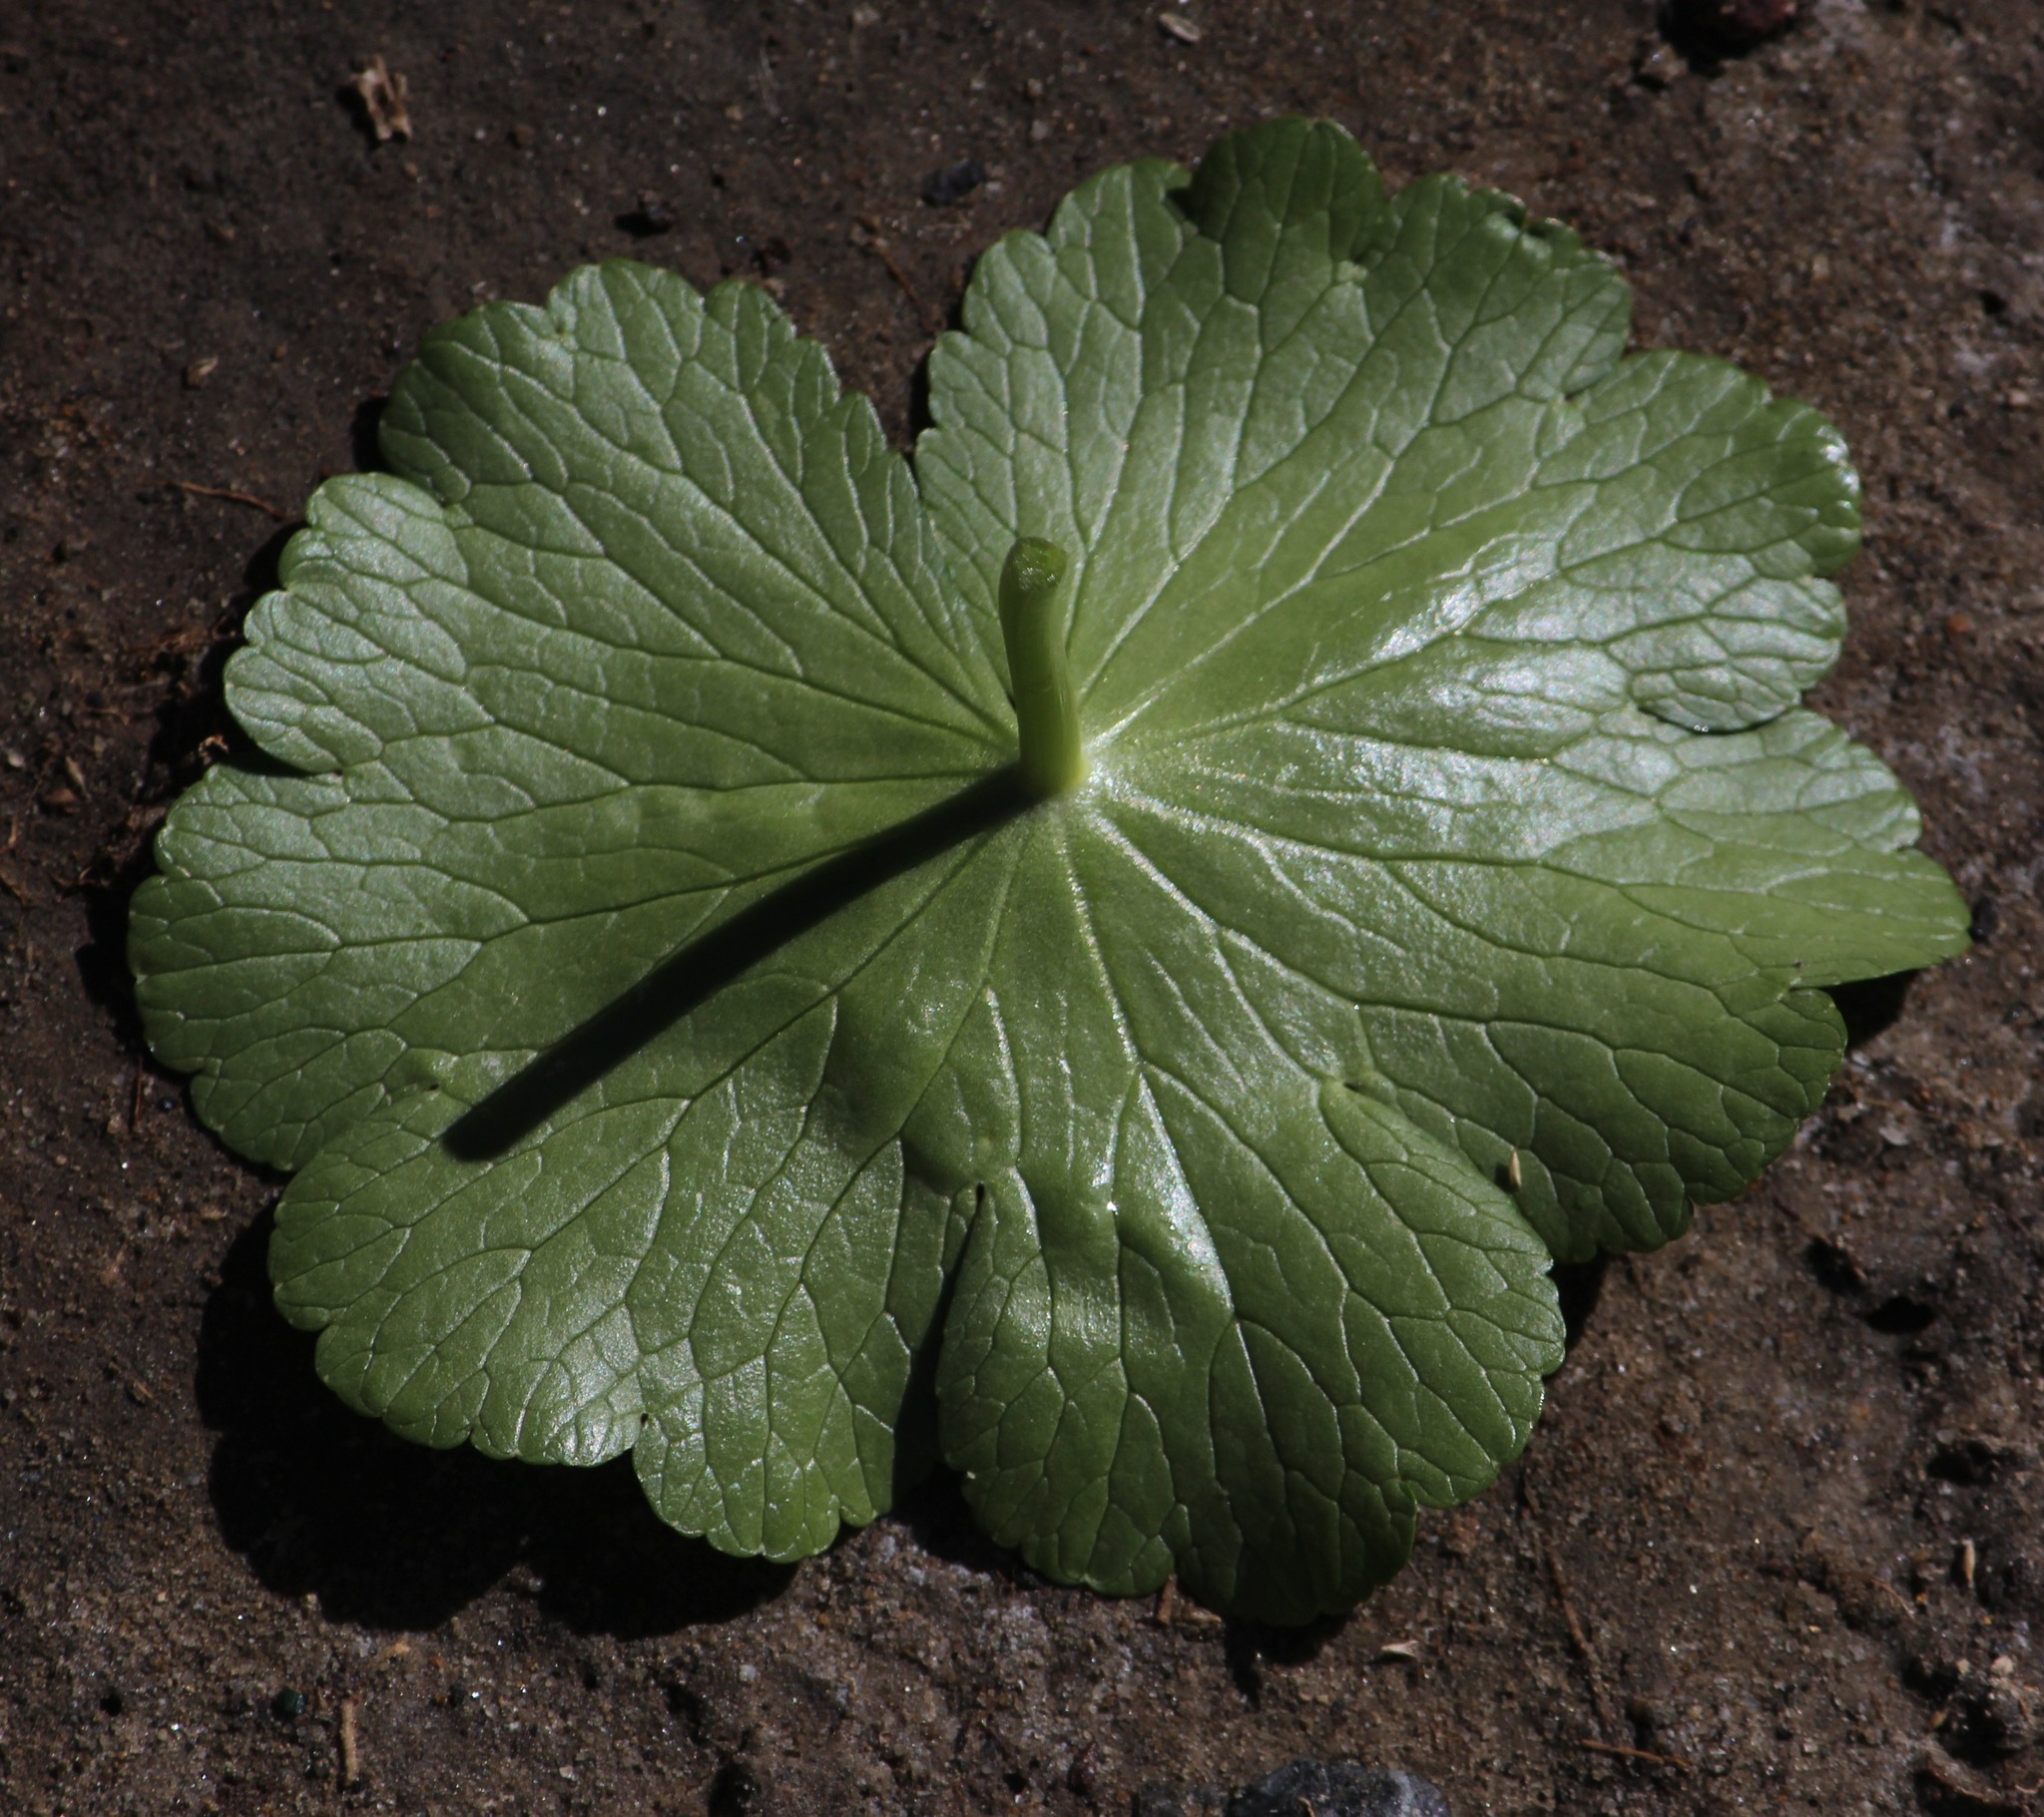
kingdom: Plantae
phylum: Tracheophyta
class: Magnoliopsida
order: Apiales
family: Araliaceae
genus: Hydrocotyle
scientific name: Hydrocotyle ranunculoides
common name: Floating pennywort
